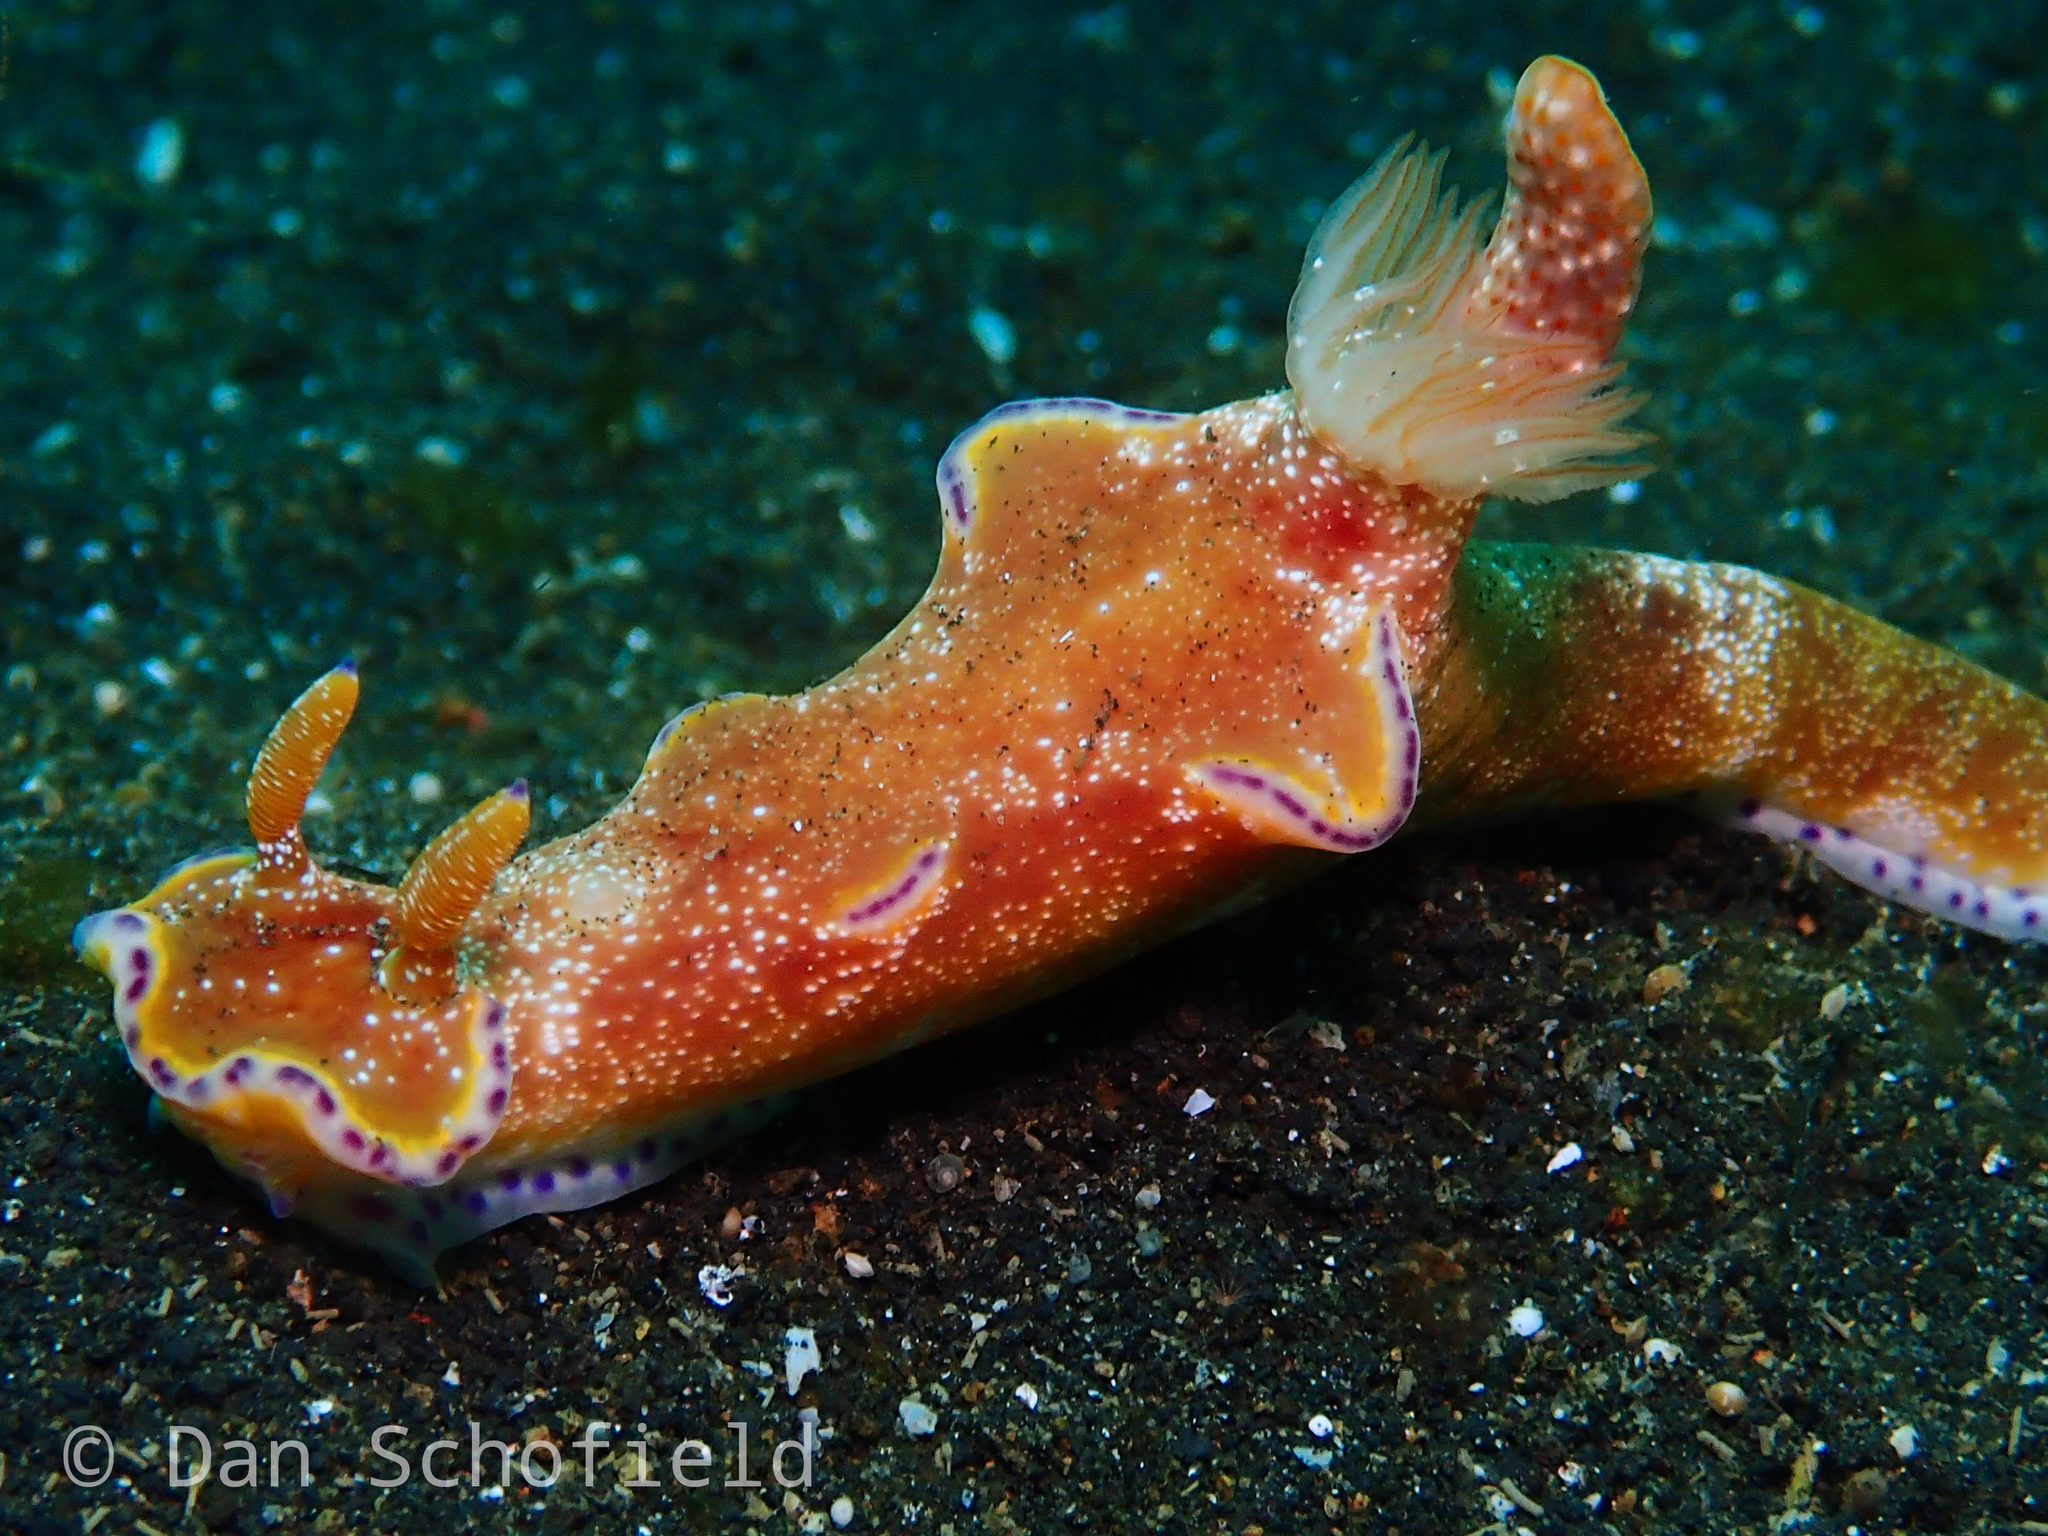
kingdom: Animalia
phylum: Mollusca
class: Gastropoda
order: Nudibranchia
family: Chromodorididae
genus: Ceratosoma
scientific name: Ceratosoma tenue
